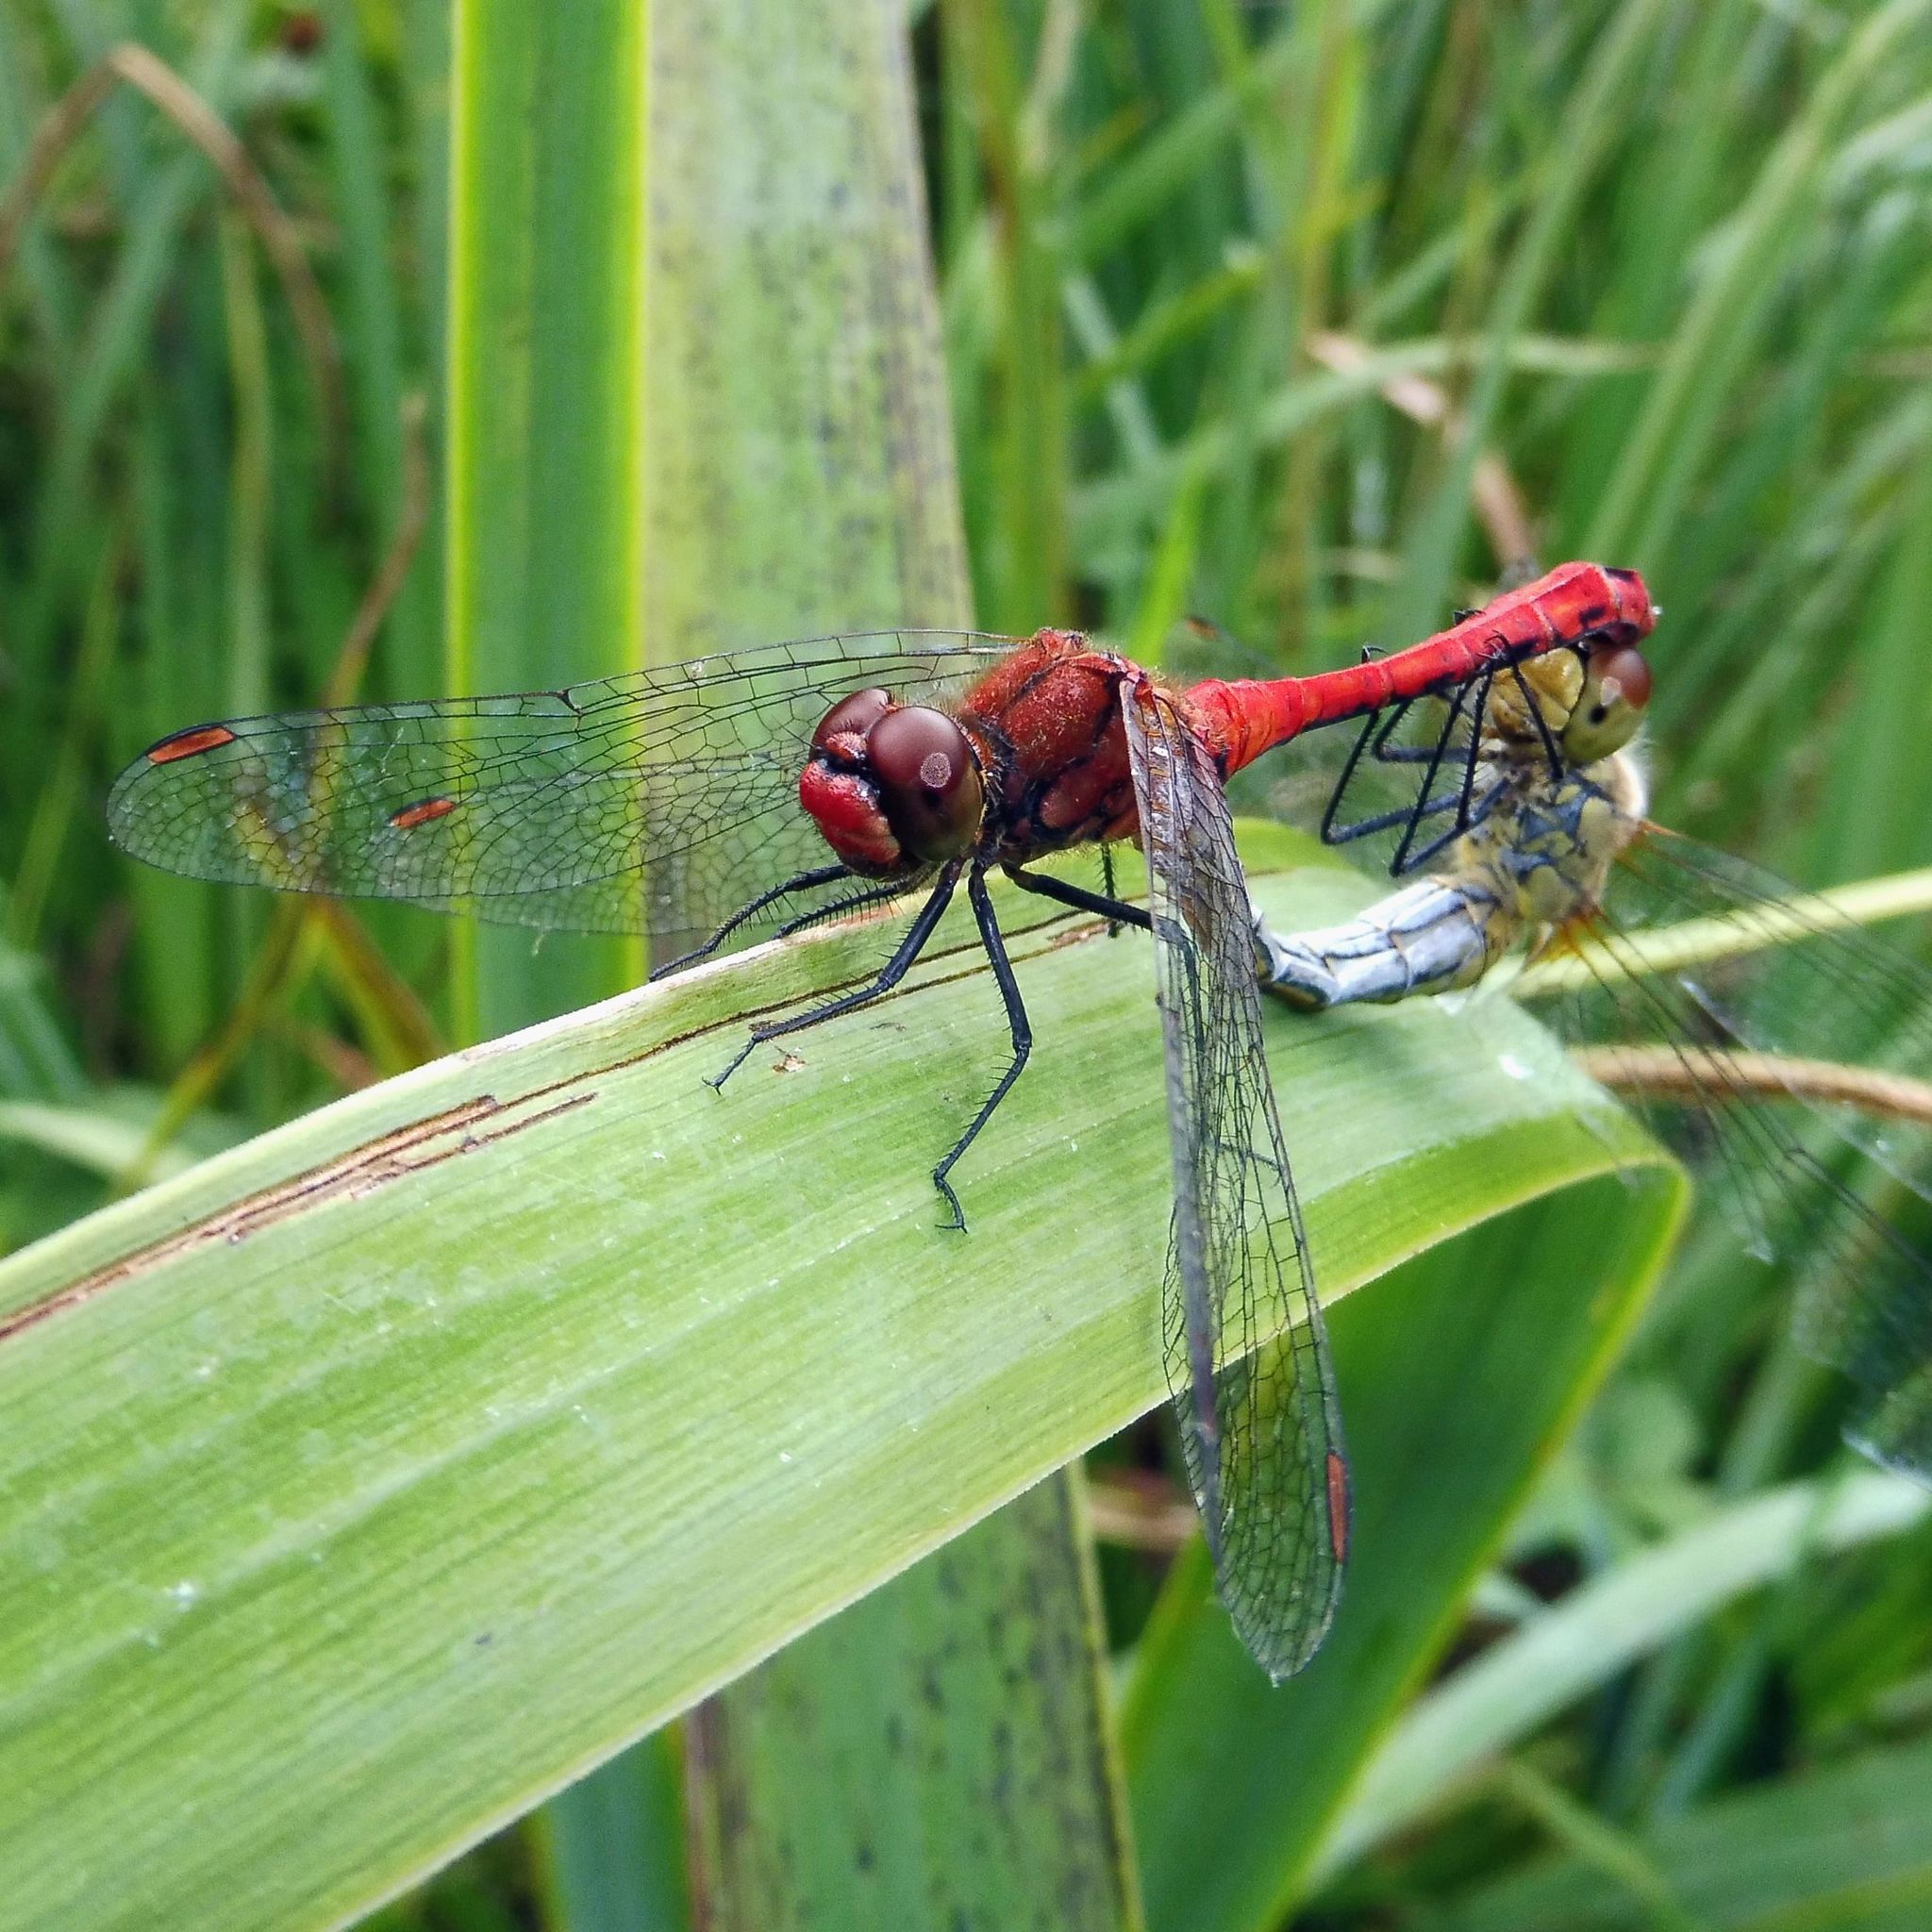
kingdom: Animalia
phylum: Arthropoda
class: Insecta
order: Odonata
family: Libellulidae
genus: Sympetrum
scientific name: Sympetrum sanguineum
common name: Ruddy darter
